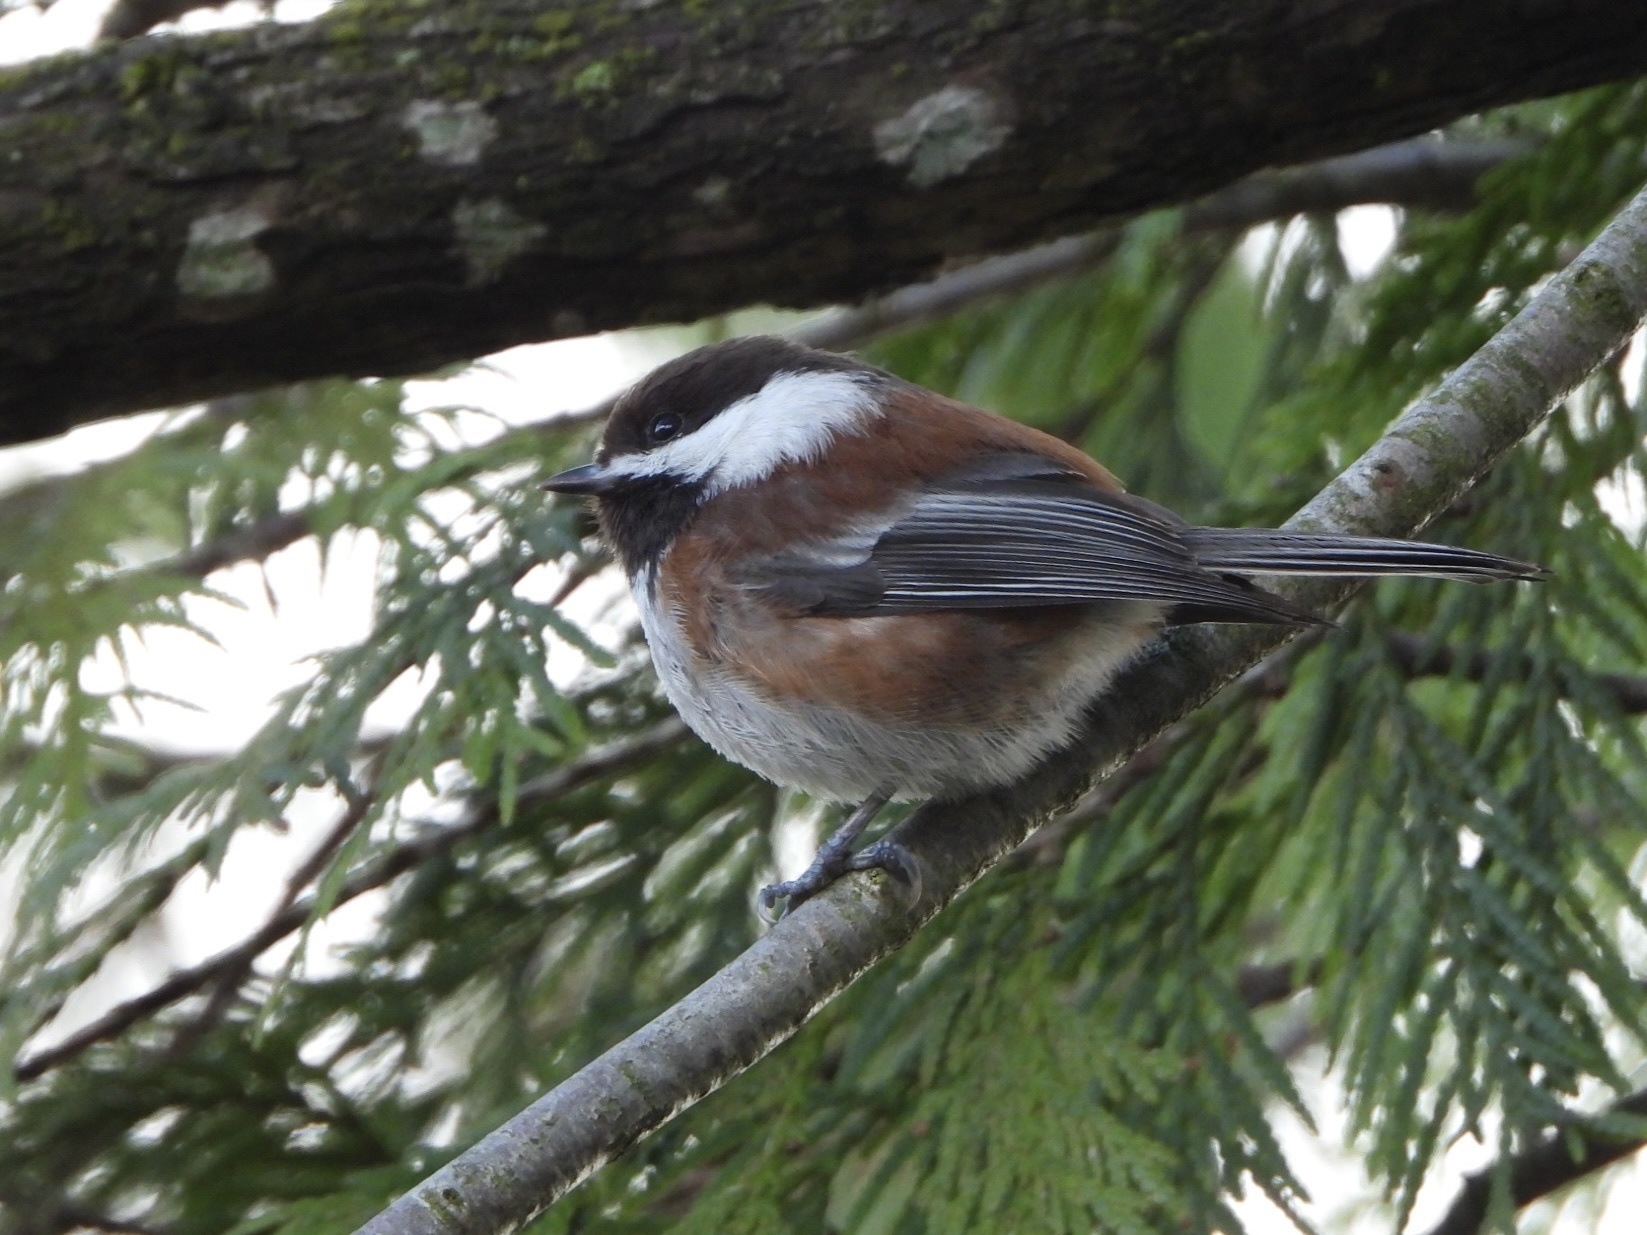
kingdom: Animalia
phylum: Chordata
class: Aves
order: Passeriformes
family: Paridae
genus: Poecile
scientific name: Poecile rufescens
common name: Chestnut-backed chickadee
